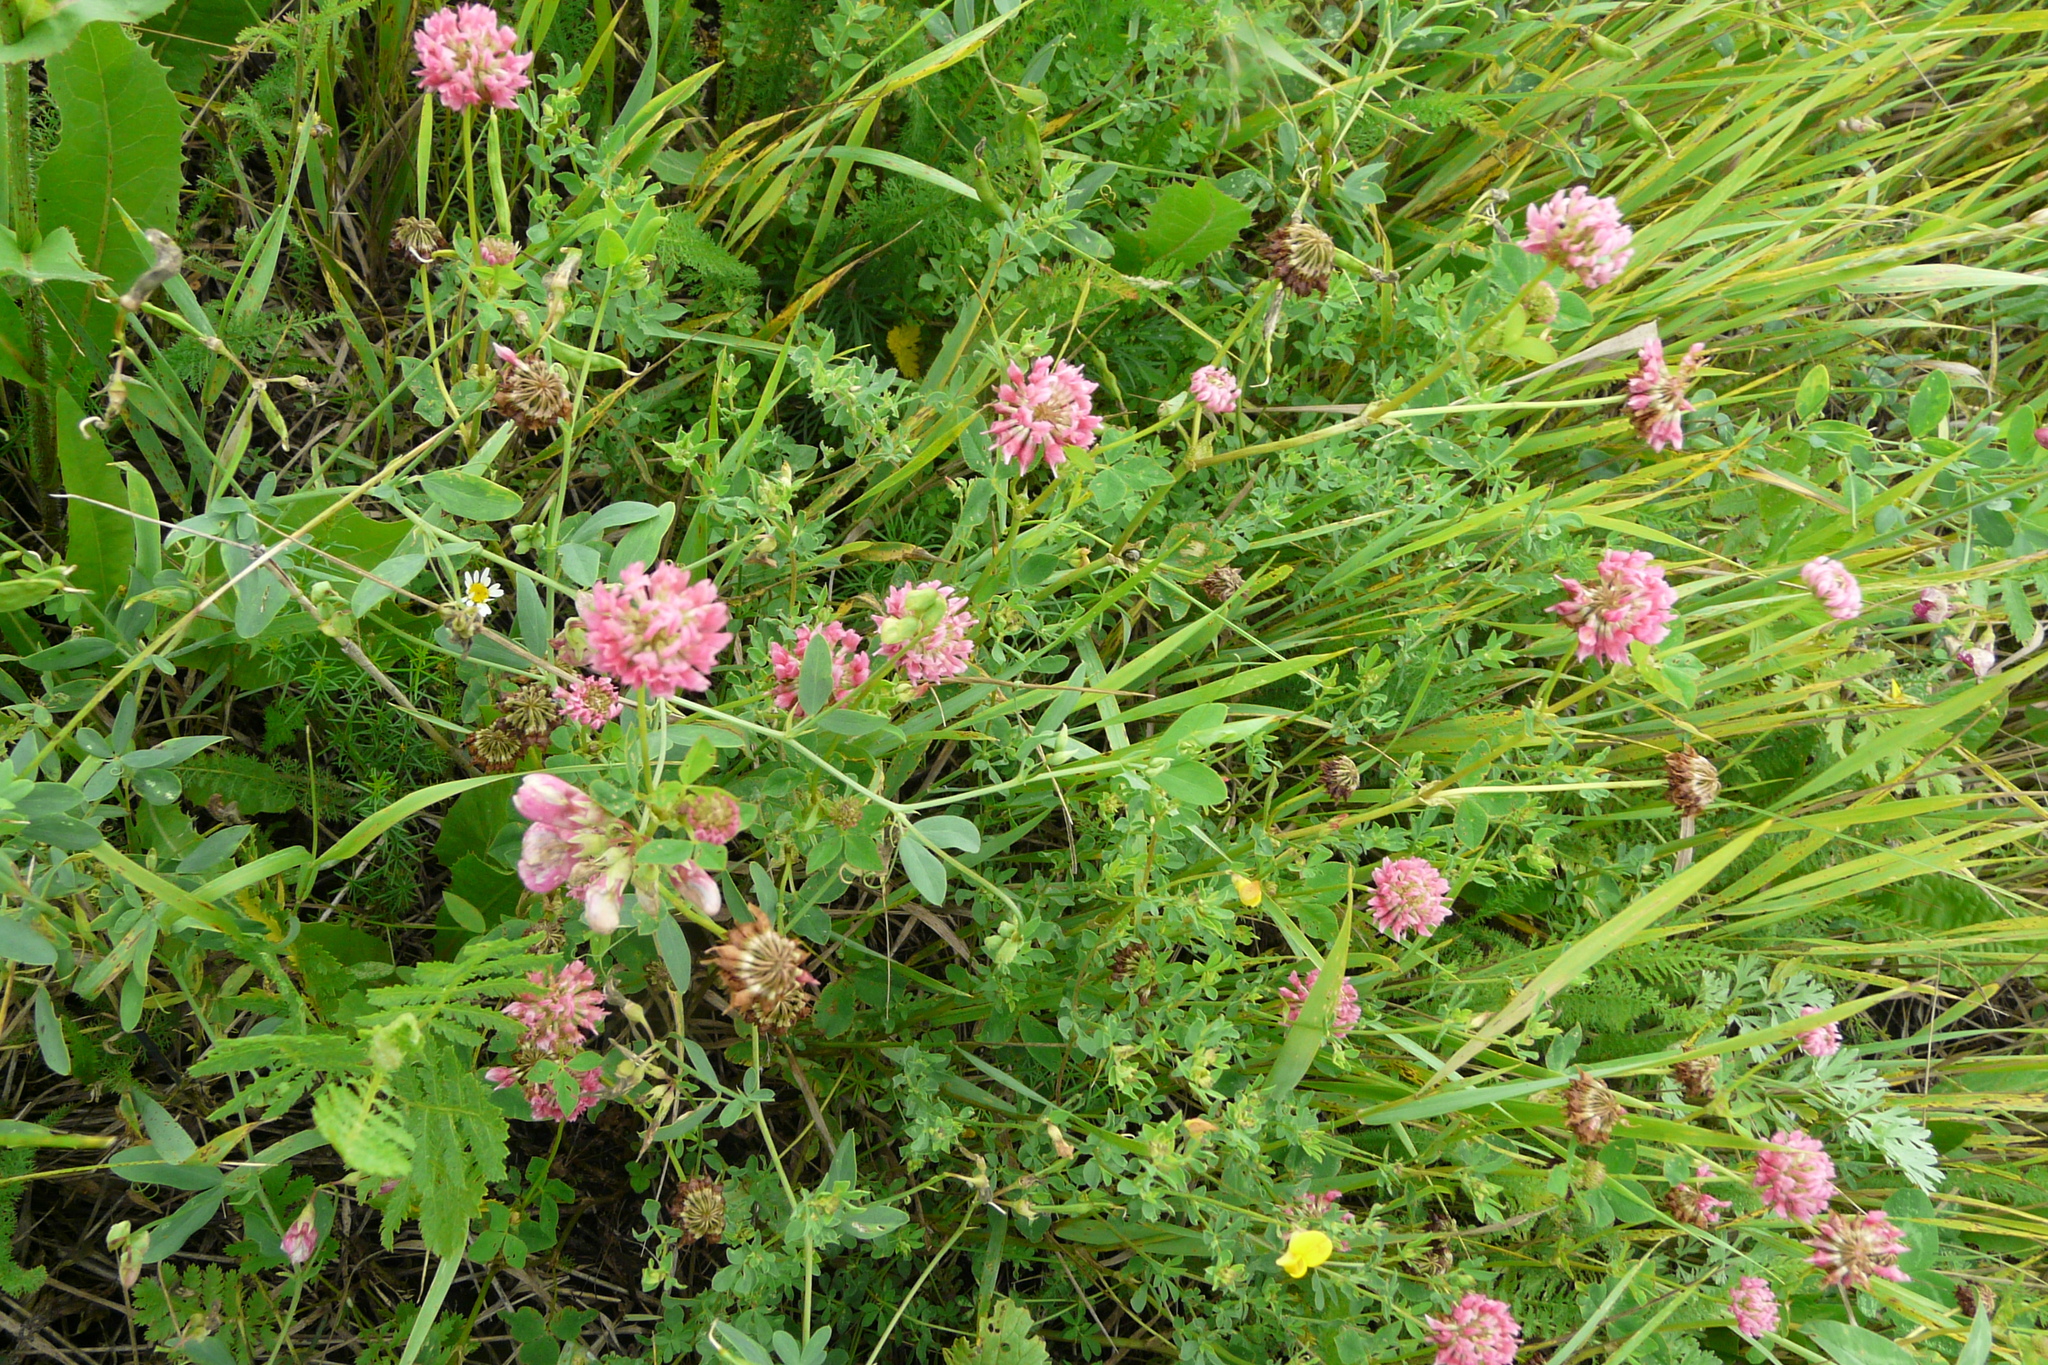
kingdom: Plantae
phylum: Tracheophyta
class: Magnoliopsida
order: Fabales
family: Fabaceae
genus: Trifolium
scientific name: Trifolium hybridum
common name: Alsike clover
